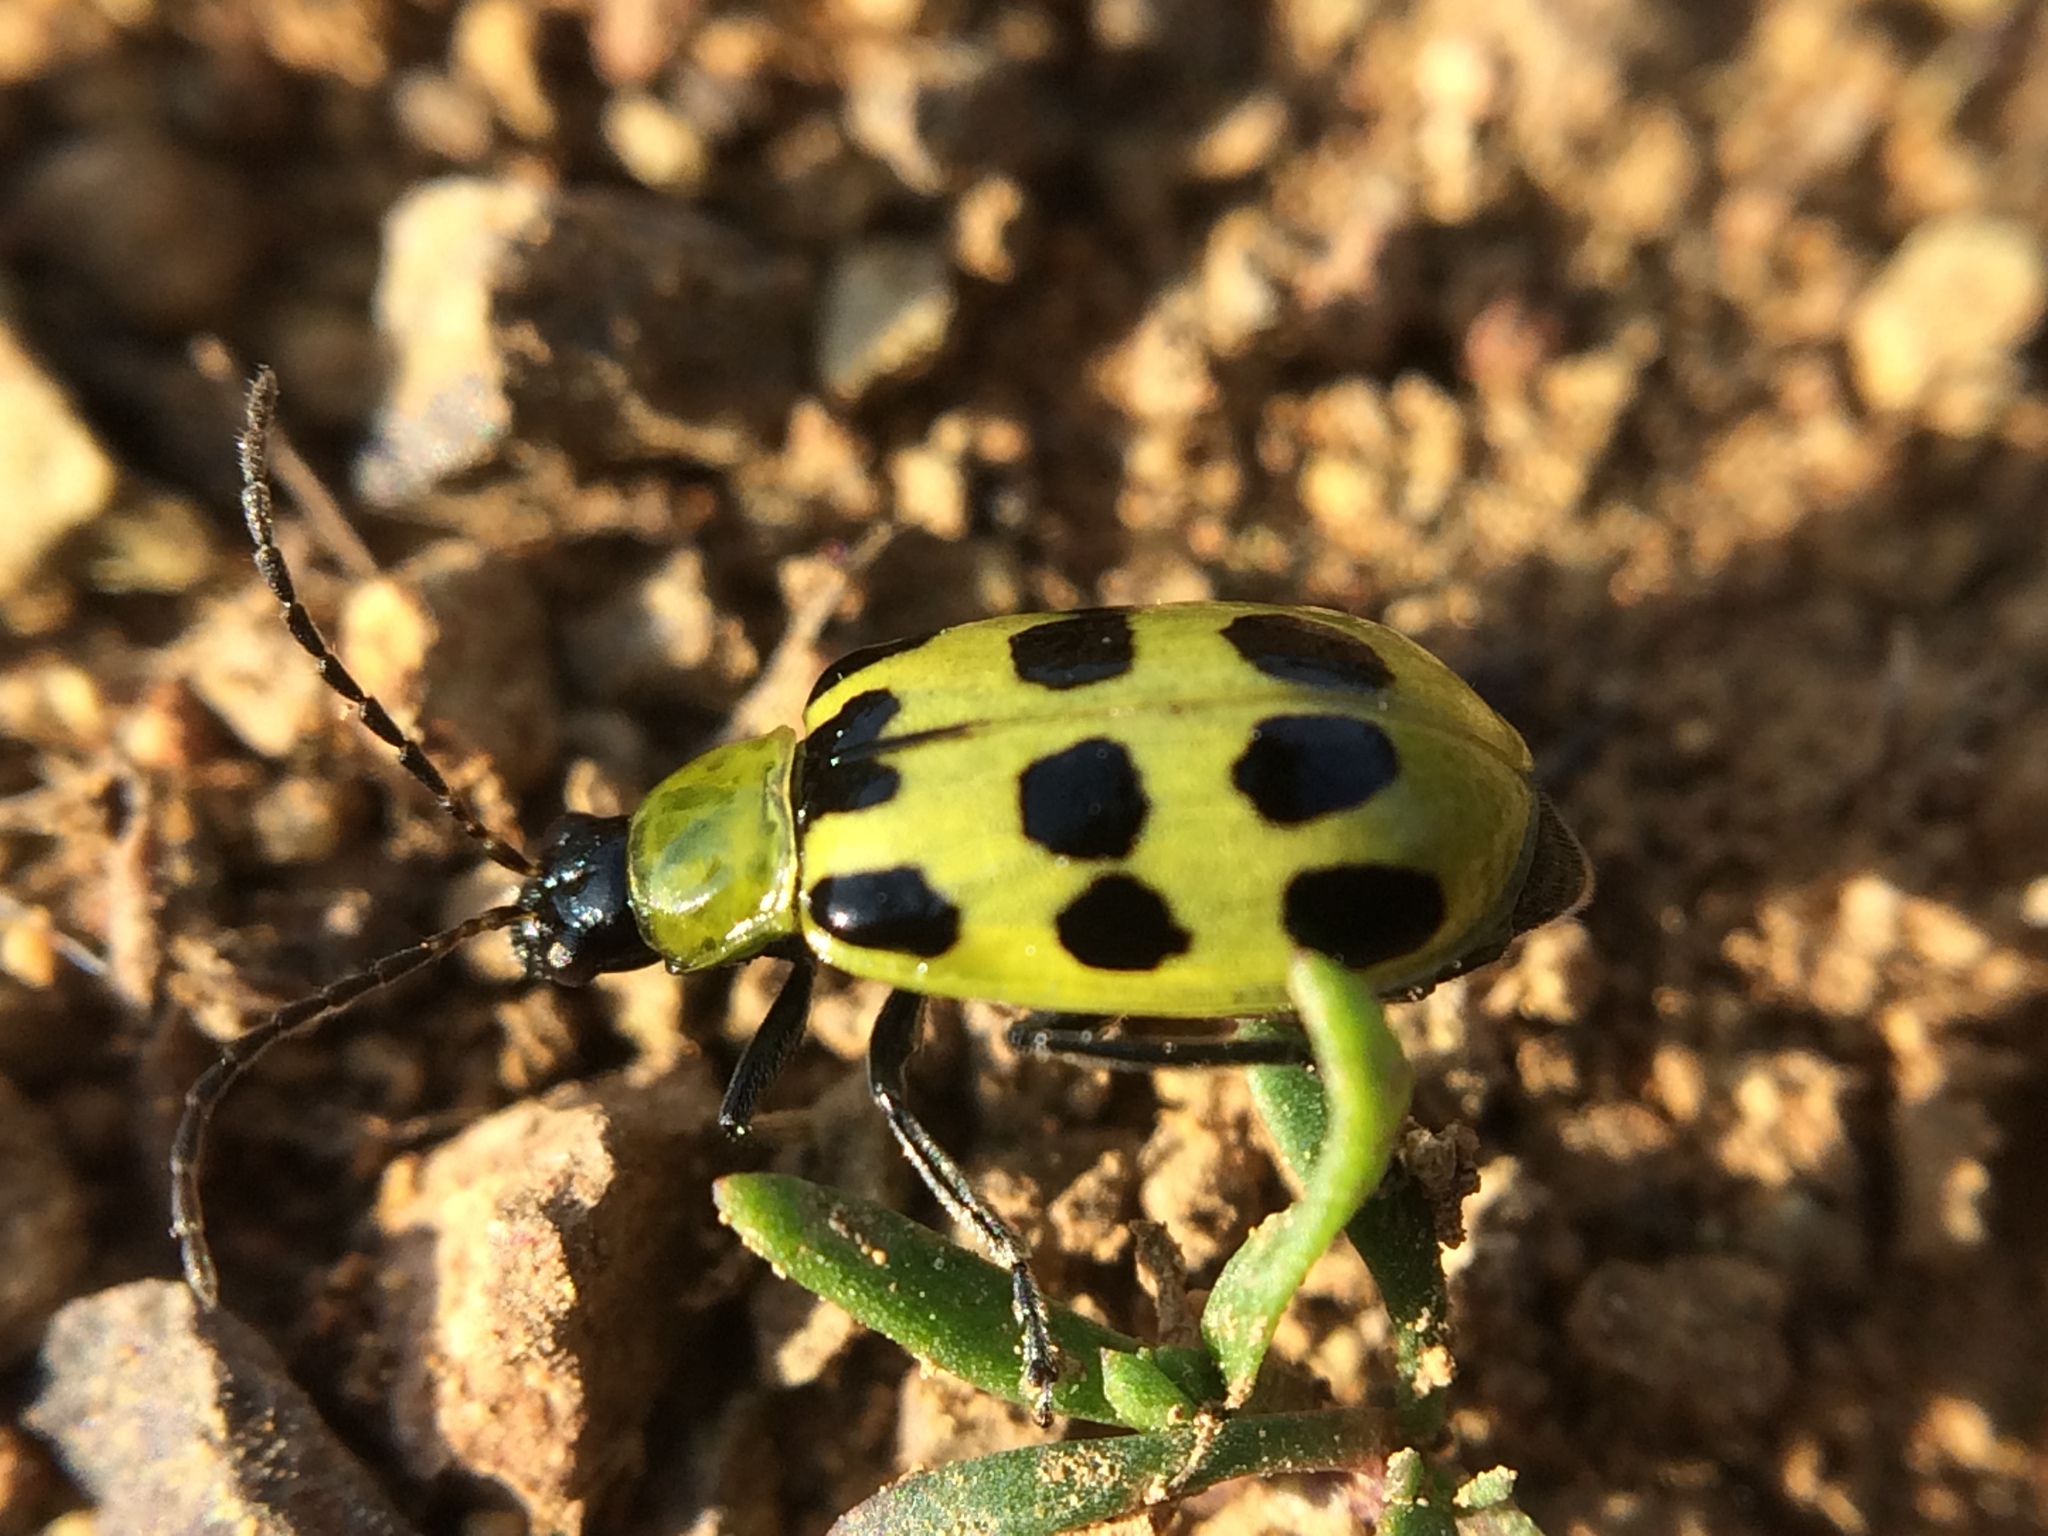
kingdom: Animalia
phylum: Arthropoda
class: Insecta
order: Coleoptera
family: Chrysomelidae
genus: Diabrotica
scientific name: Diabrotica undecimpunctata
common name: Spotted cucumber beetle
